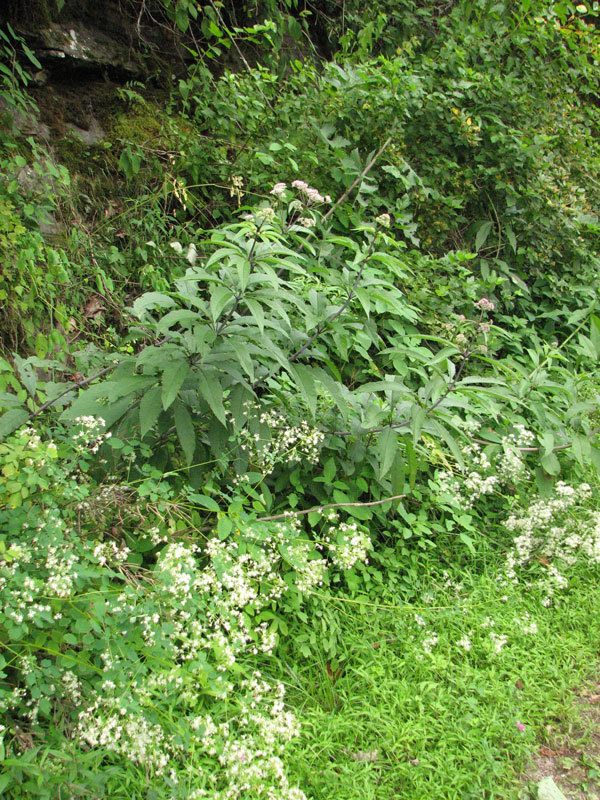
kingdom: Plantae
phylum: Tracheophyta
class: Magnoliopsida
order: Asterales
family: Asteraceae
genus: Eutrochium
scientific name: Eutrochium fistulosum
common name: Trumpetweed
